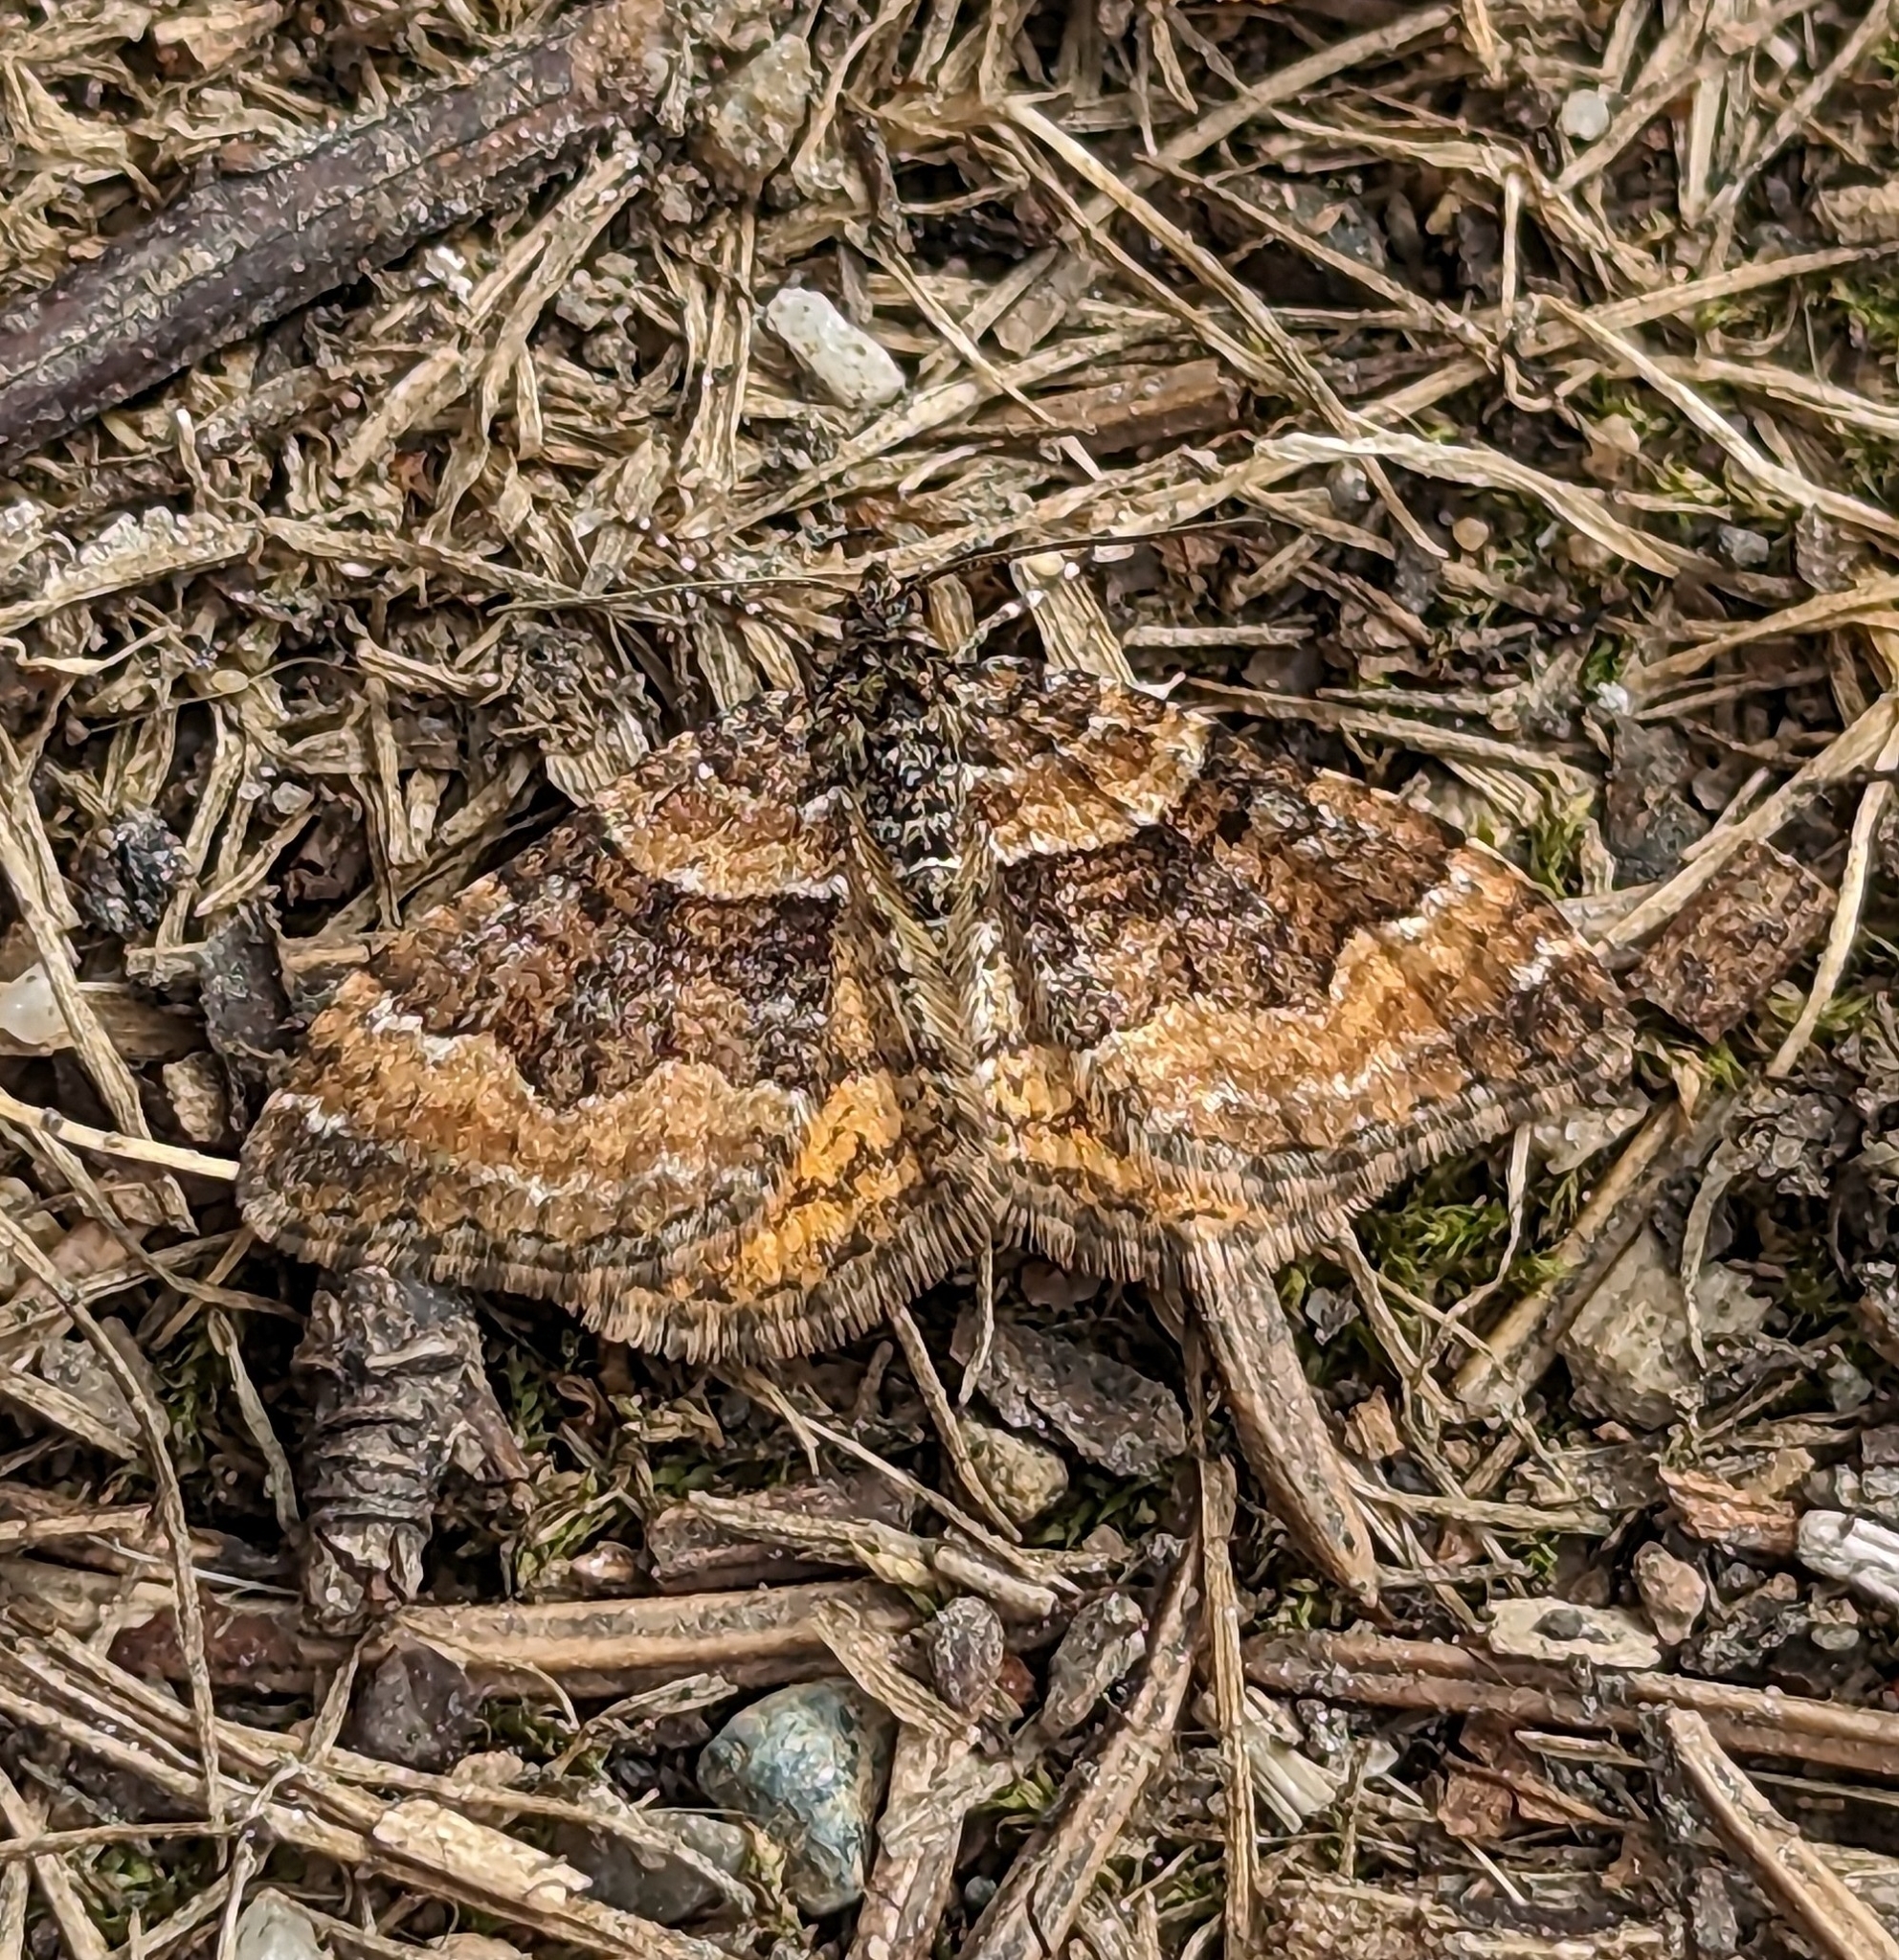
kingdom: Animalia
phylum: Arthropoda
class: Insecta
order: Lepidoptera
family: Geometridae
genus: Epirrhoe
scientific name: Epirrhoe plebeculata
